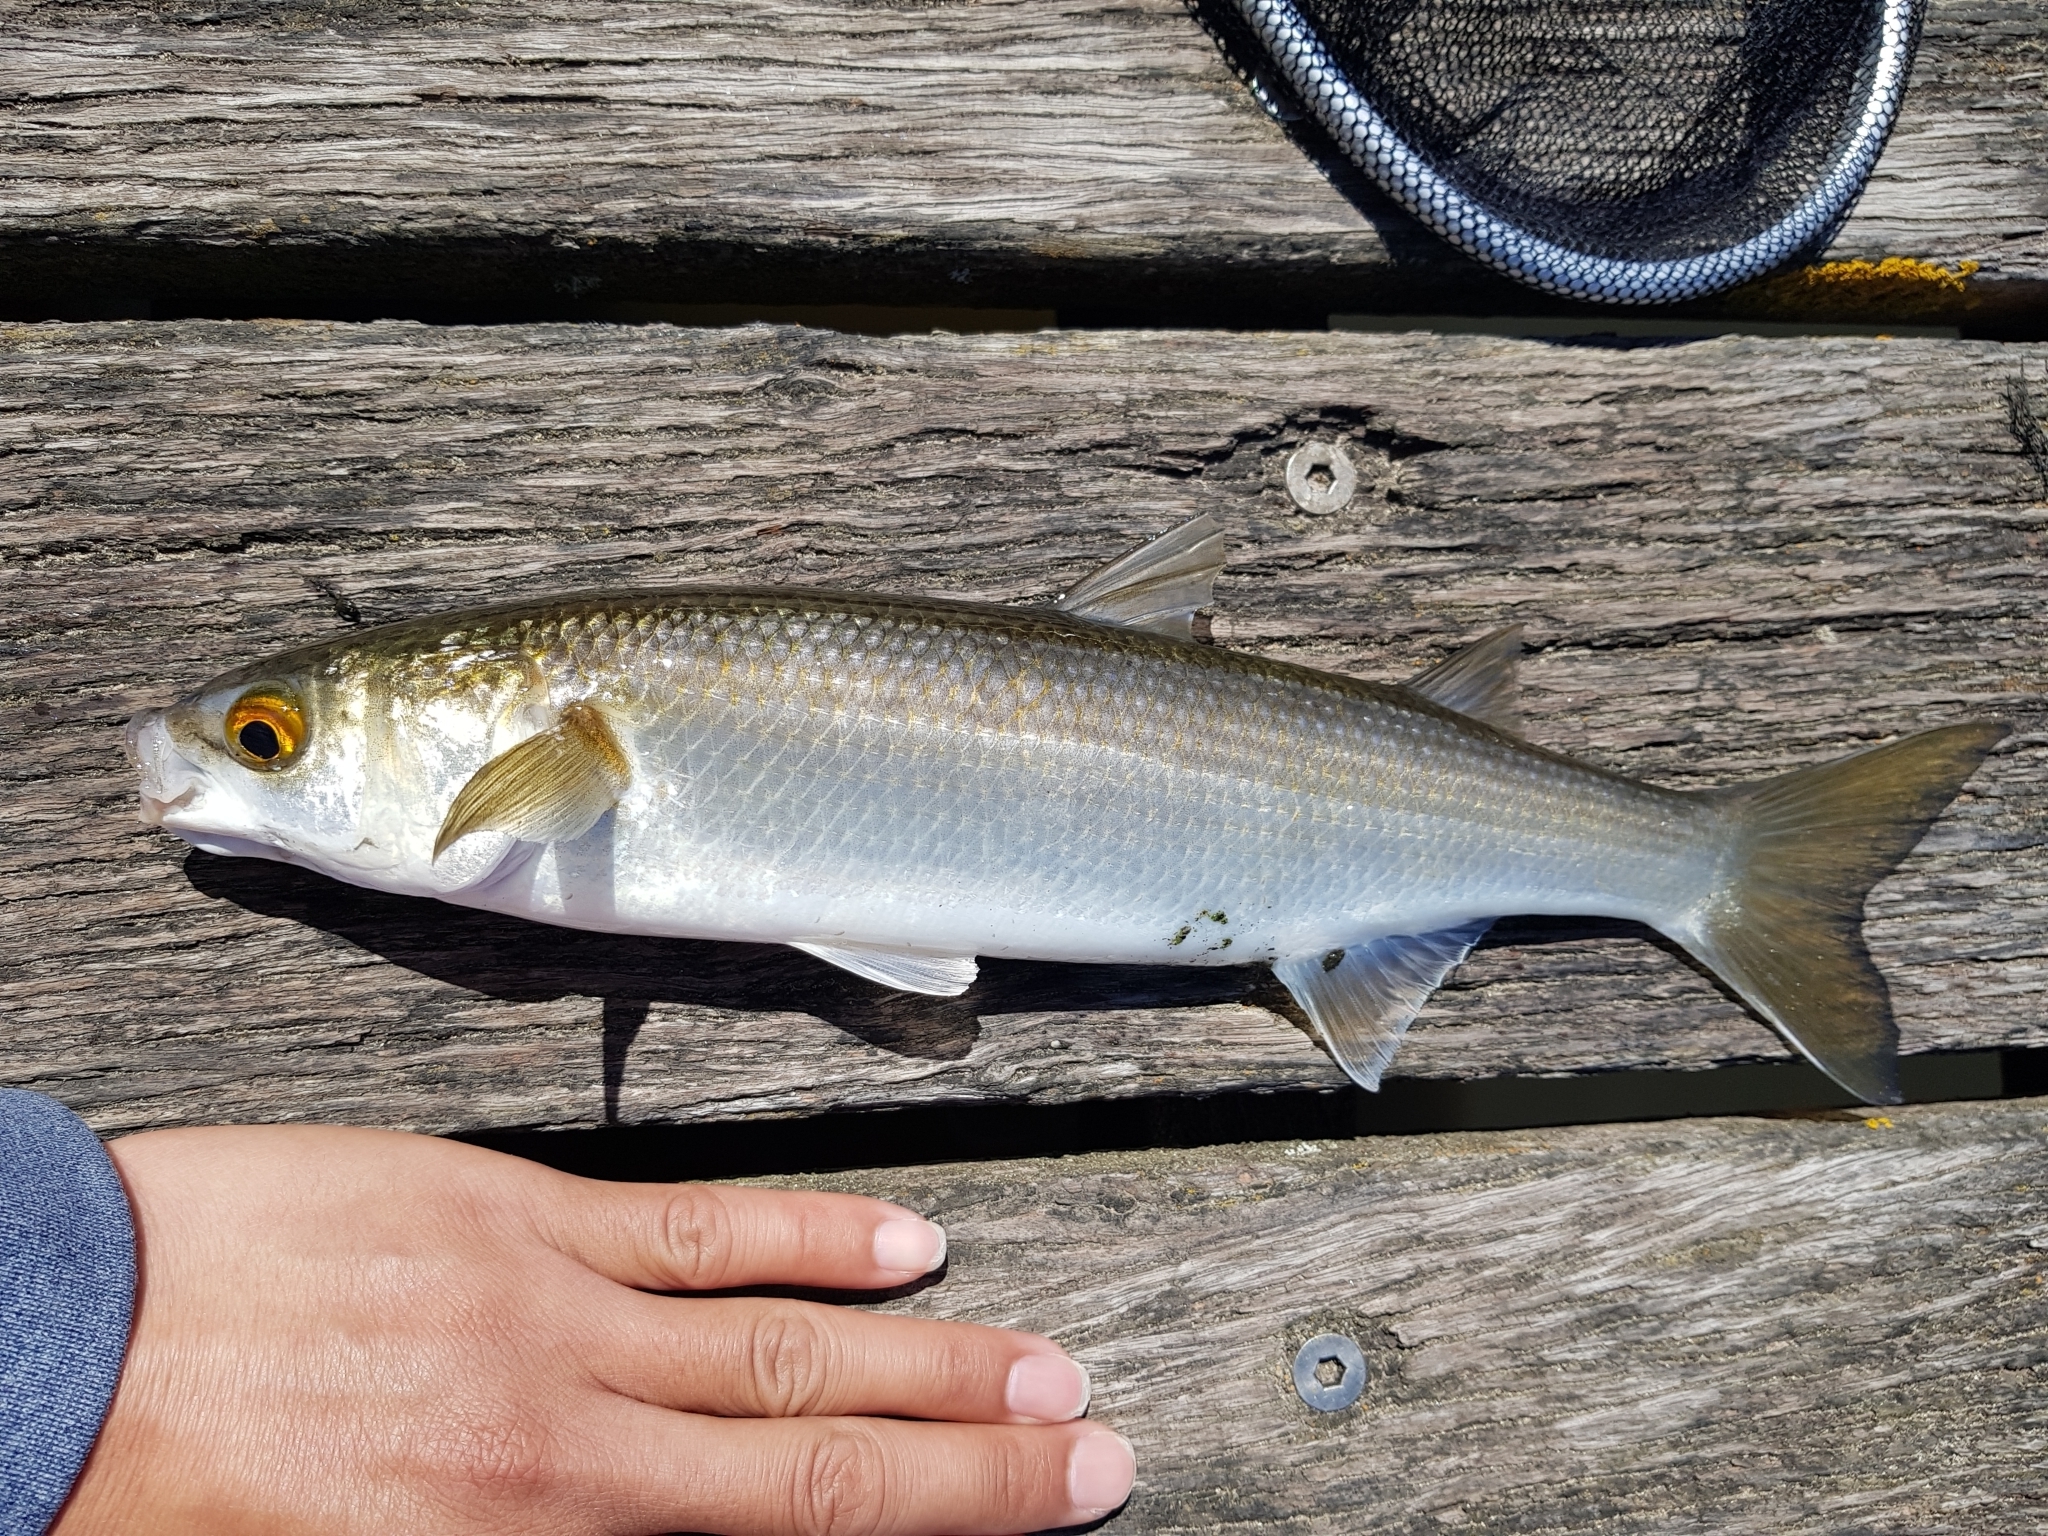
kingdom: Animalia
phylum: Chordata
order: Mugiliformes
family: Mugilidae
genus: Aldrichetta
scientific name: Aldrichetta forsteri
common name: Yellow-eye mullet
